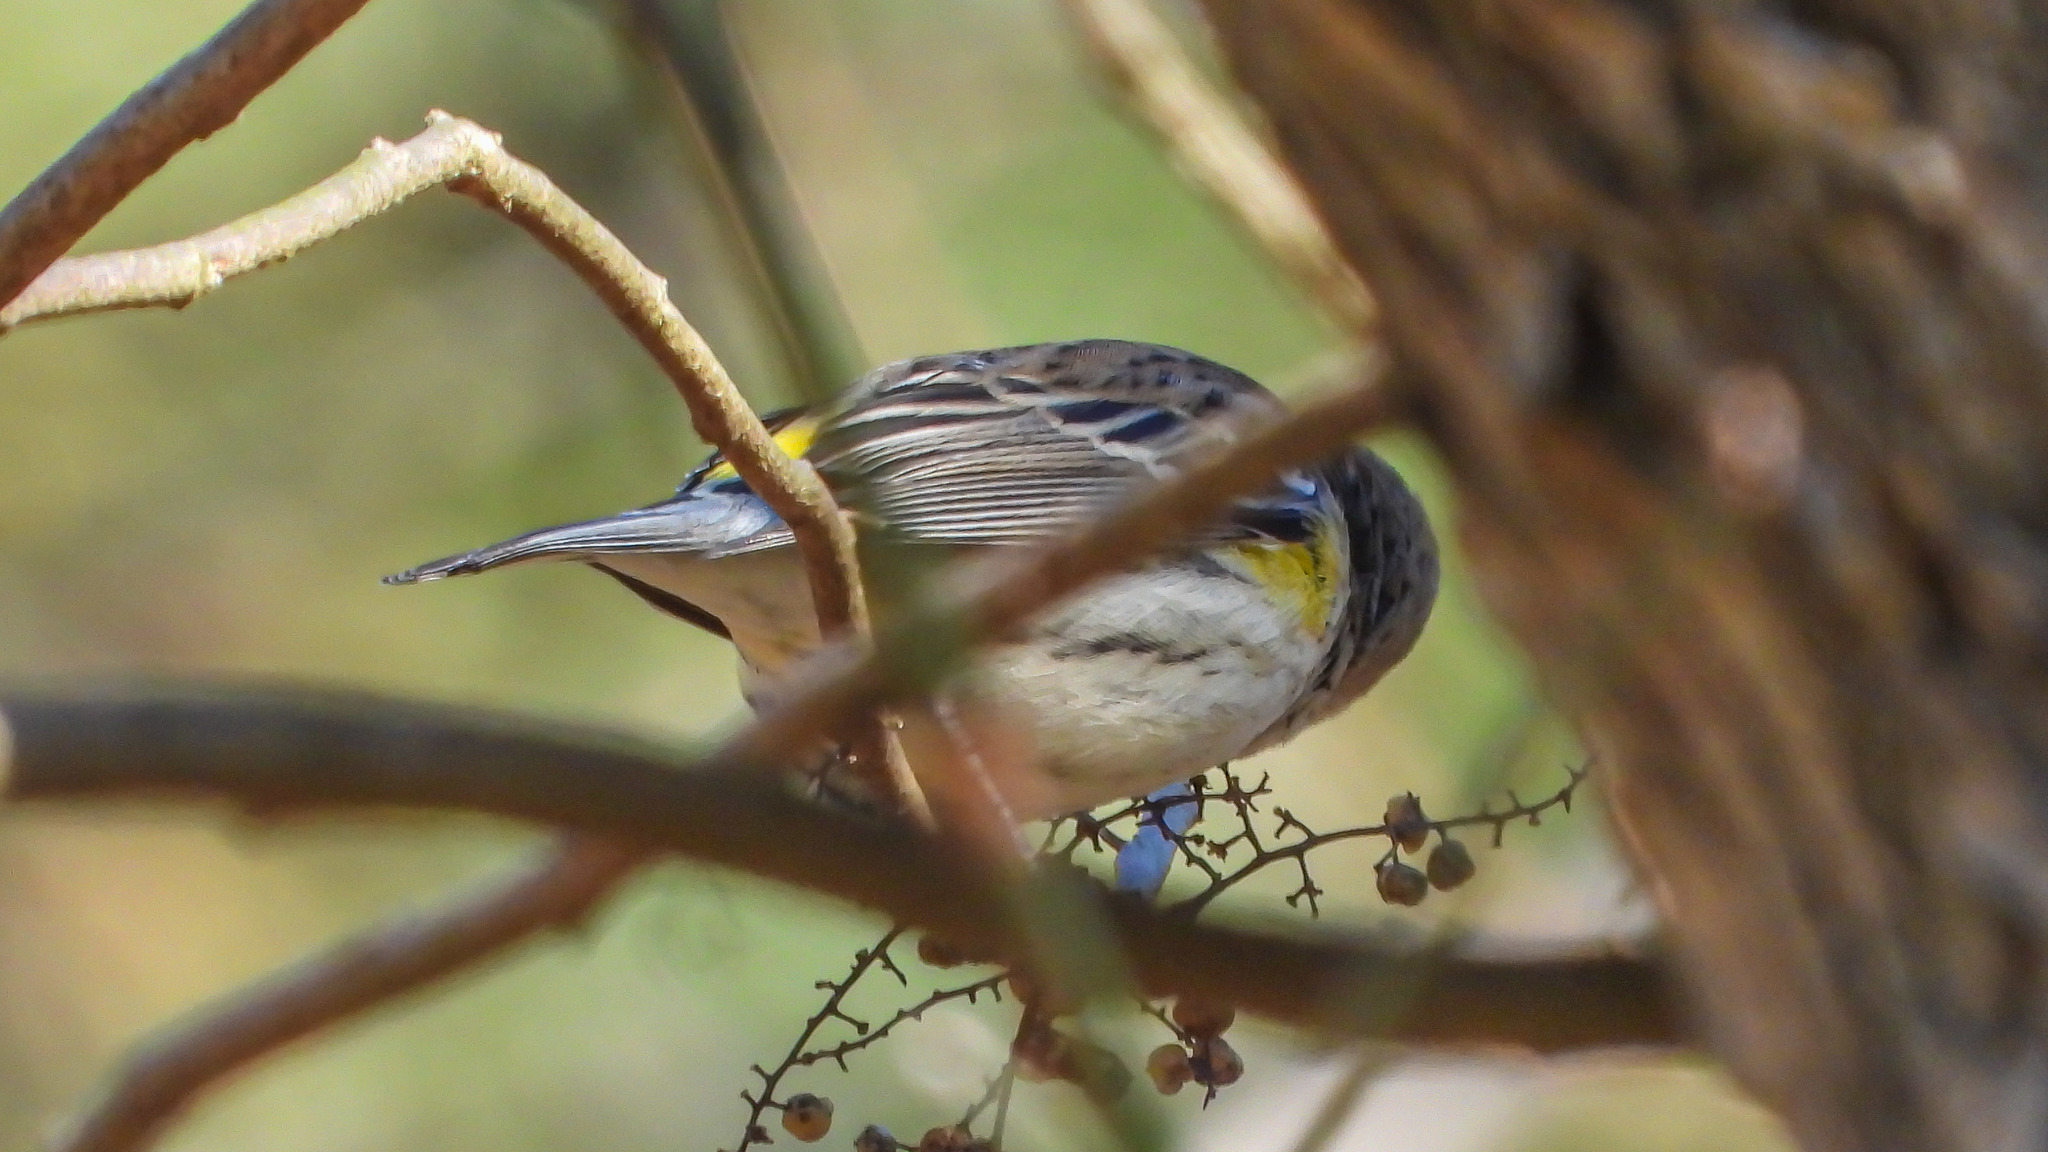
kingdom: Animalia
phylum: Chordata
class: Aves
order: Passeriformes
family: Parulidae
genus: Setophaga
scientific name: Setophaga coronata
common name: Myrtle warbler
